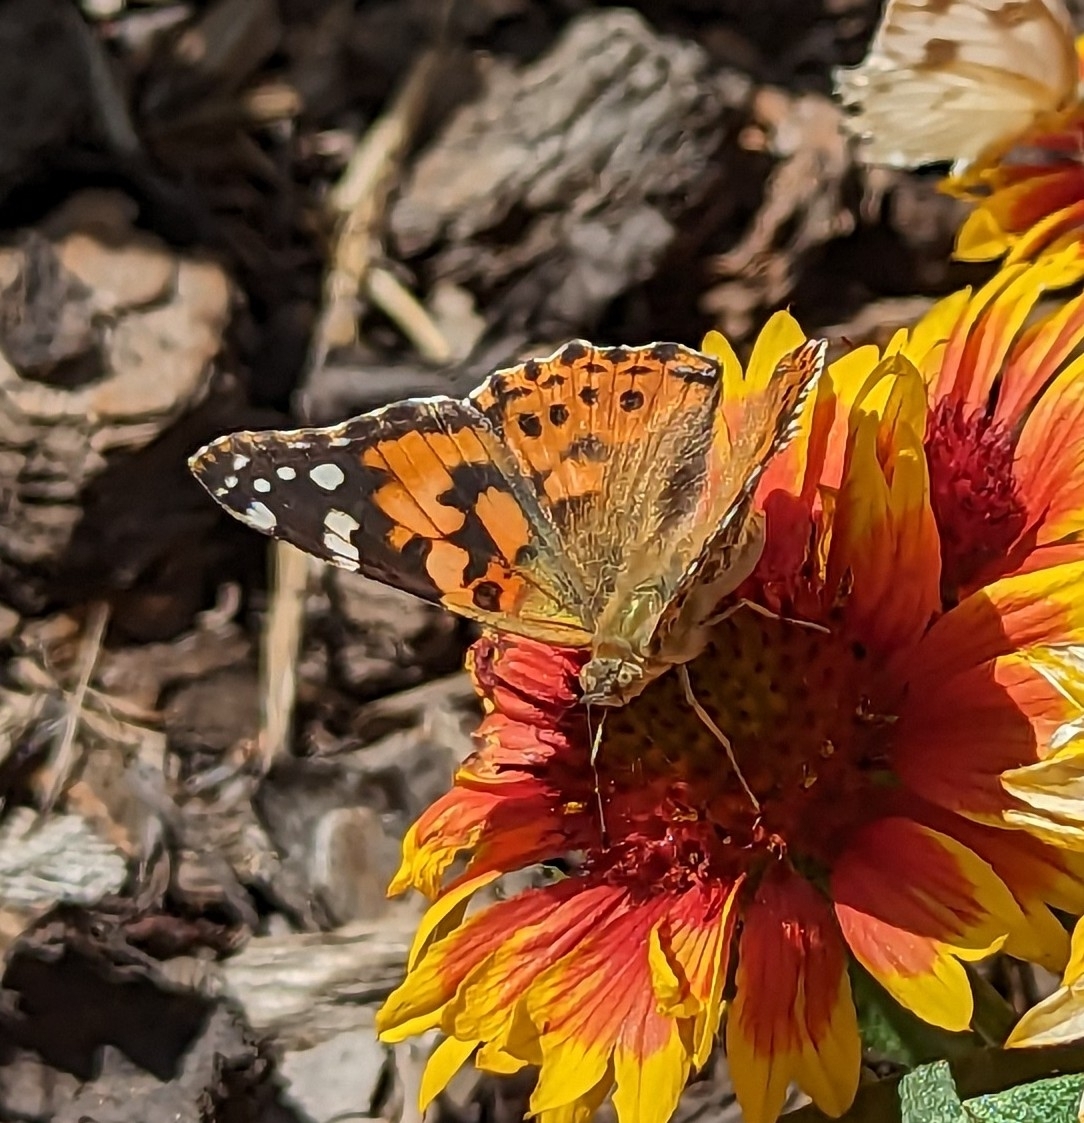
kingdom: Animalia
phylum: Arthropoda
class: Insecta
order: Lepidoptera
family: Nymphalidae
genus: Vanessa
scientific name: Vanessa cardui
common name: Painted lady
